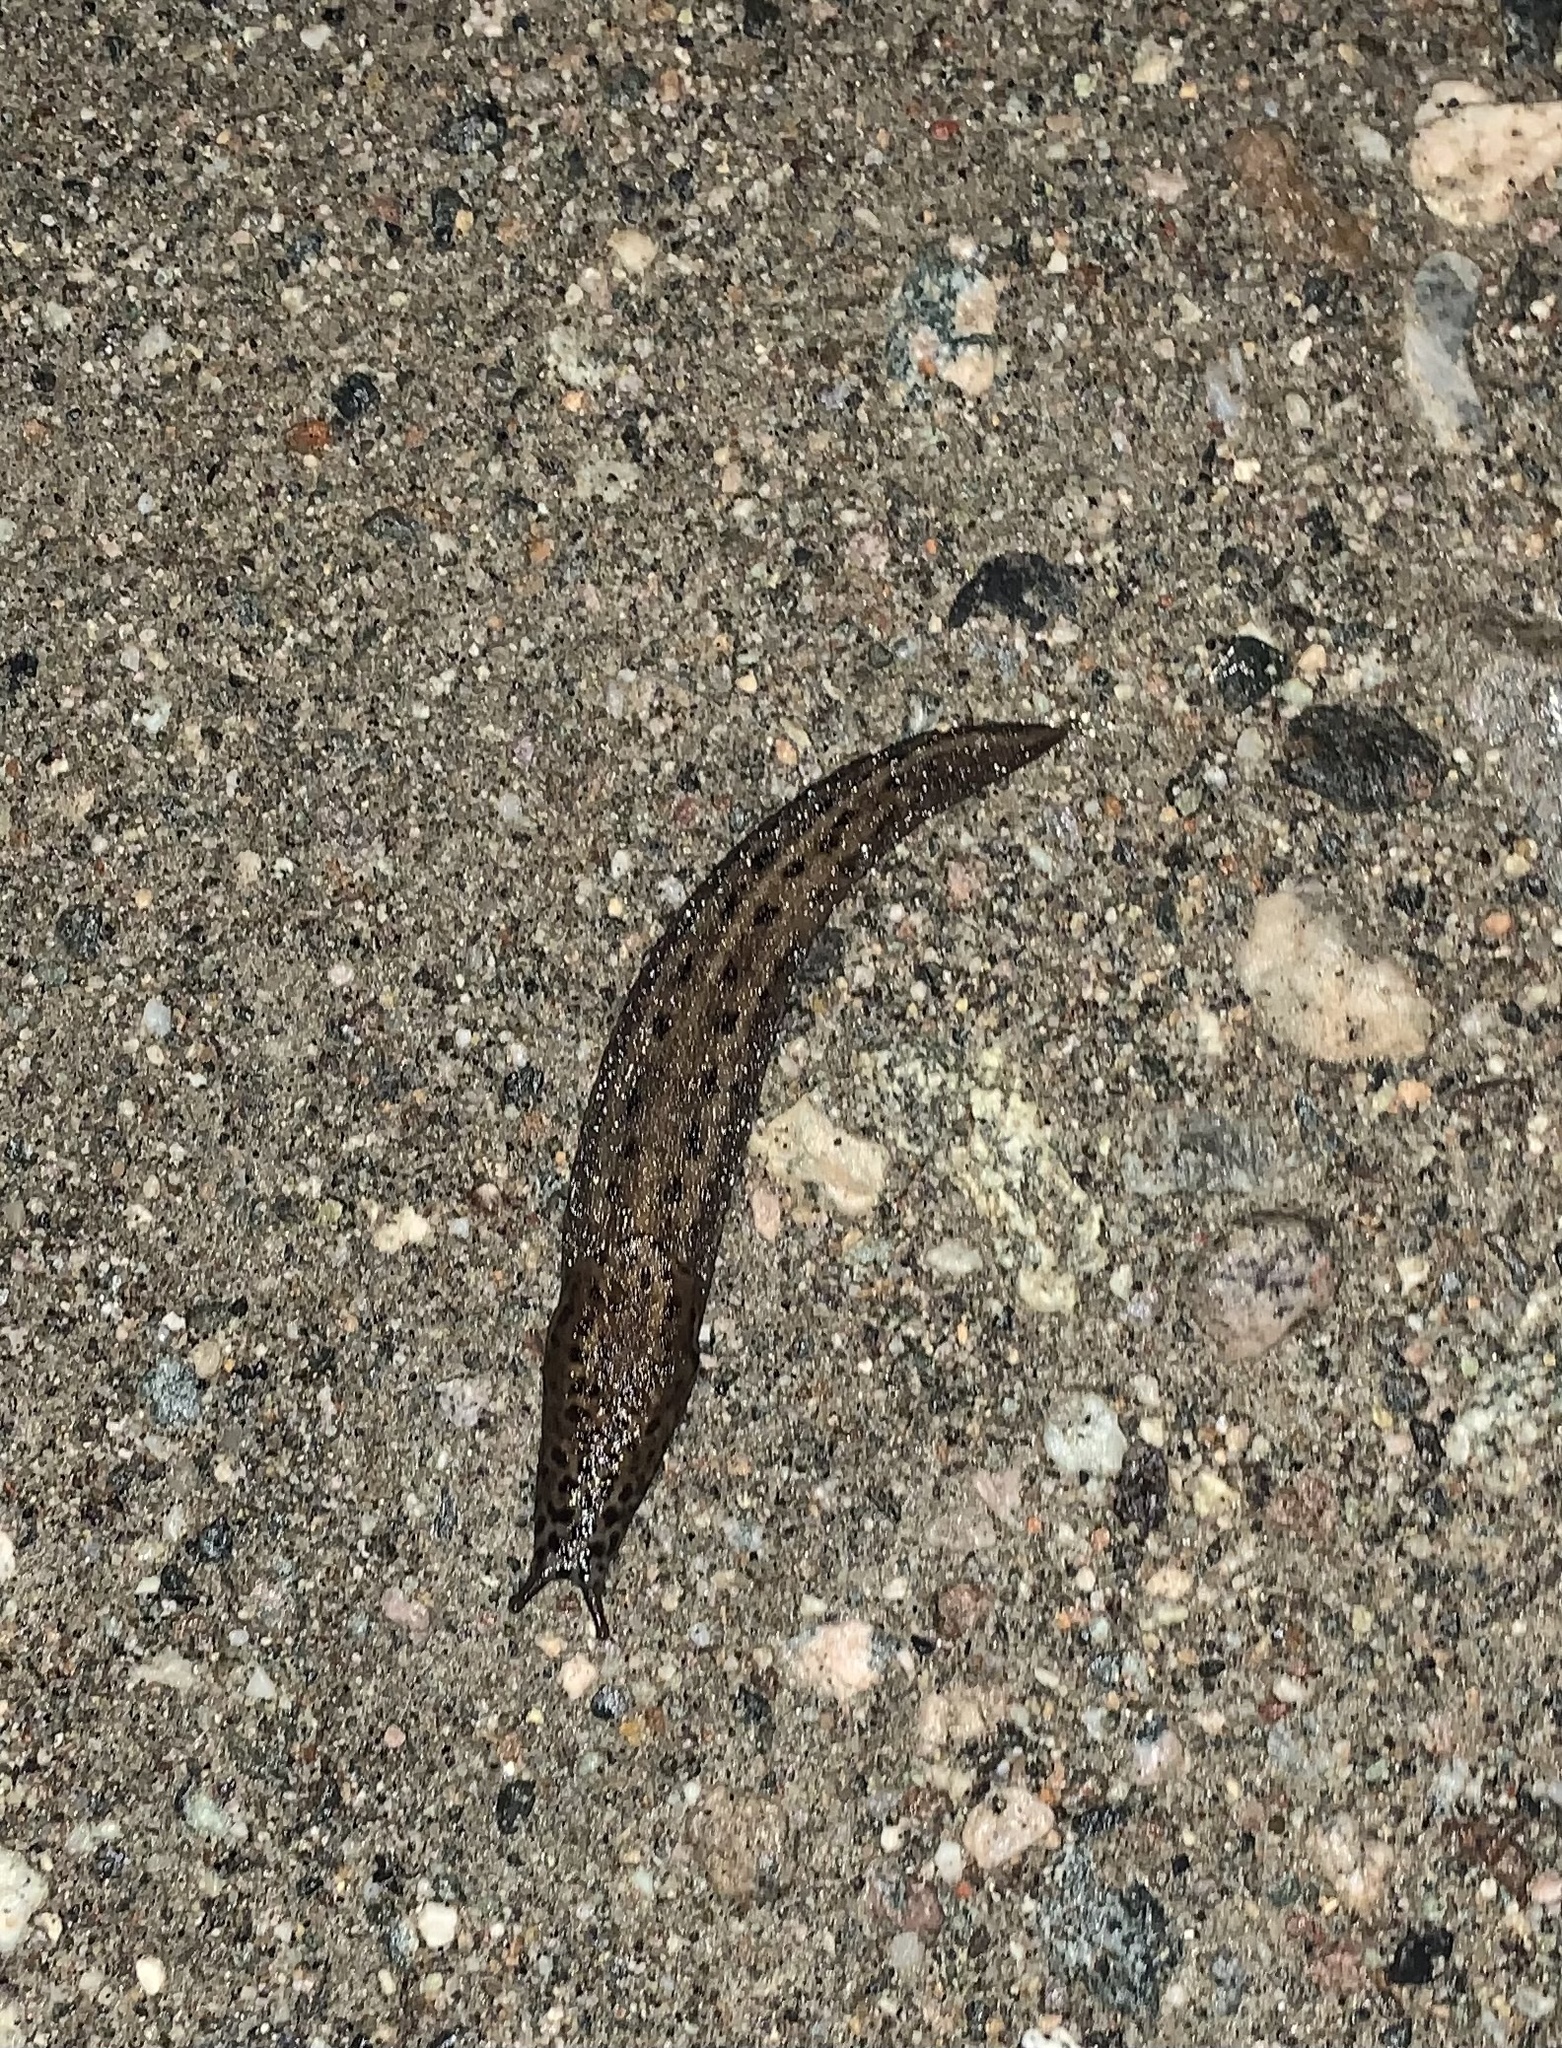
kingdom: Animalia
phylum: Mollusca
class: Gastropoda
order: Stylommatophora
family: Limacidae
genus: Limax
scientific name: Limax maximus
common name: Great grey slug
